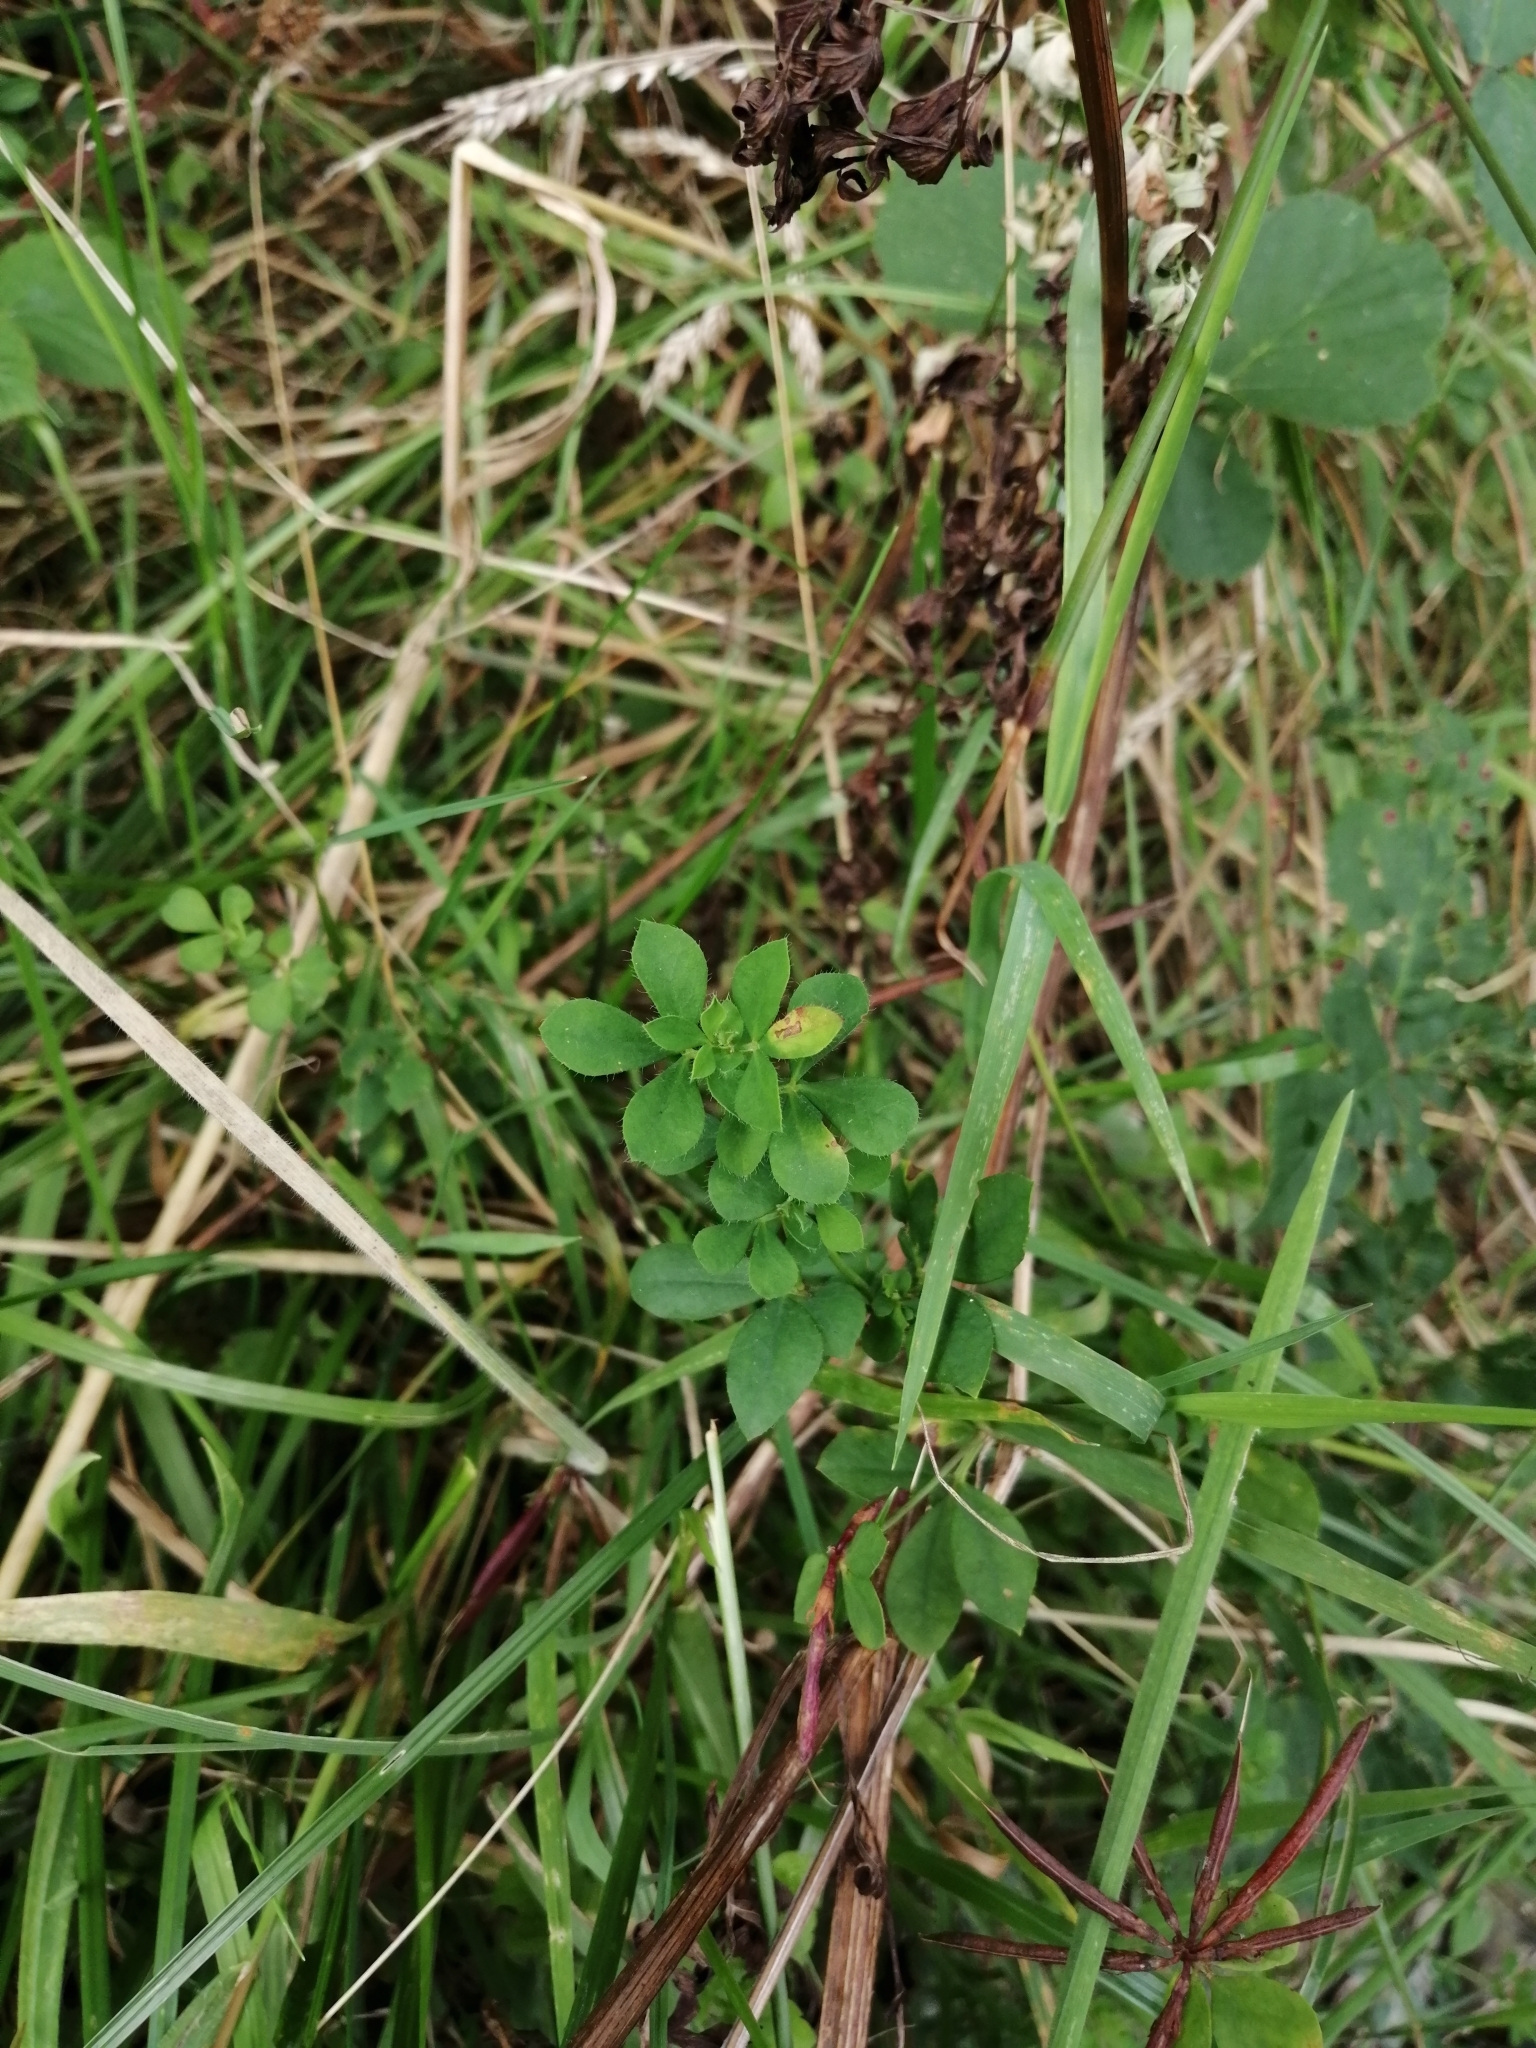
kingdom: Plantae
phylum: Tracheophyta
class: Magnoliopsida
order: Fabales
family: Fabaceae
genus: Lotus
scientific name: Lotus pedunculatus
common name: Greater birdsfoot-trefoil
